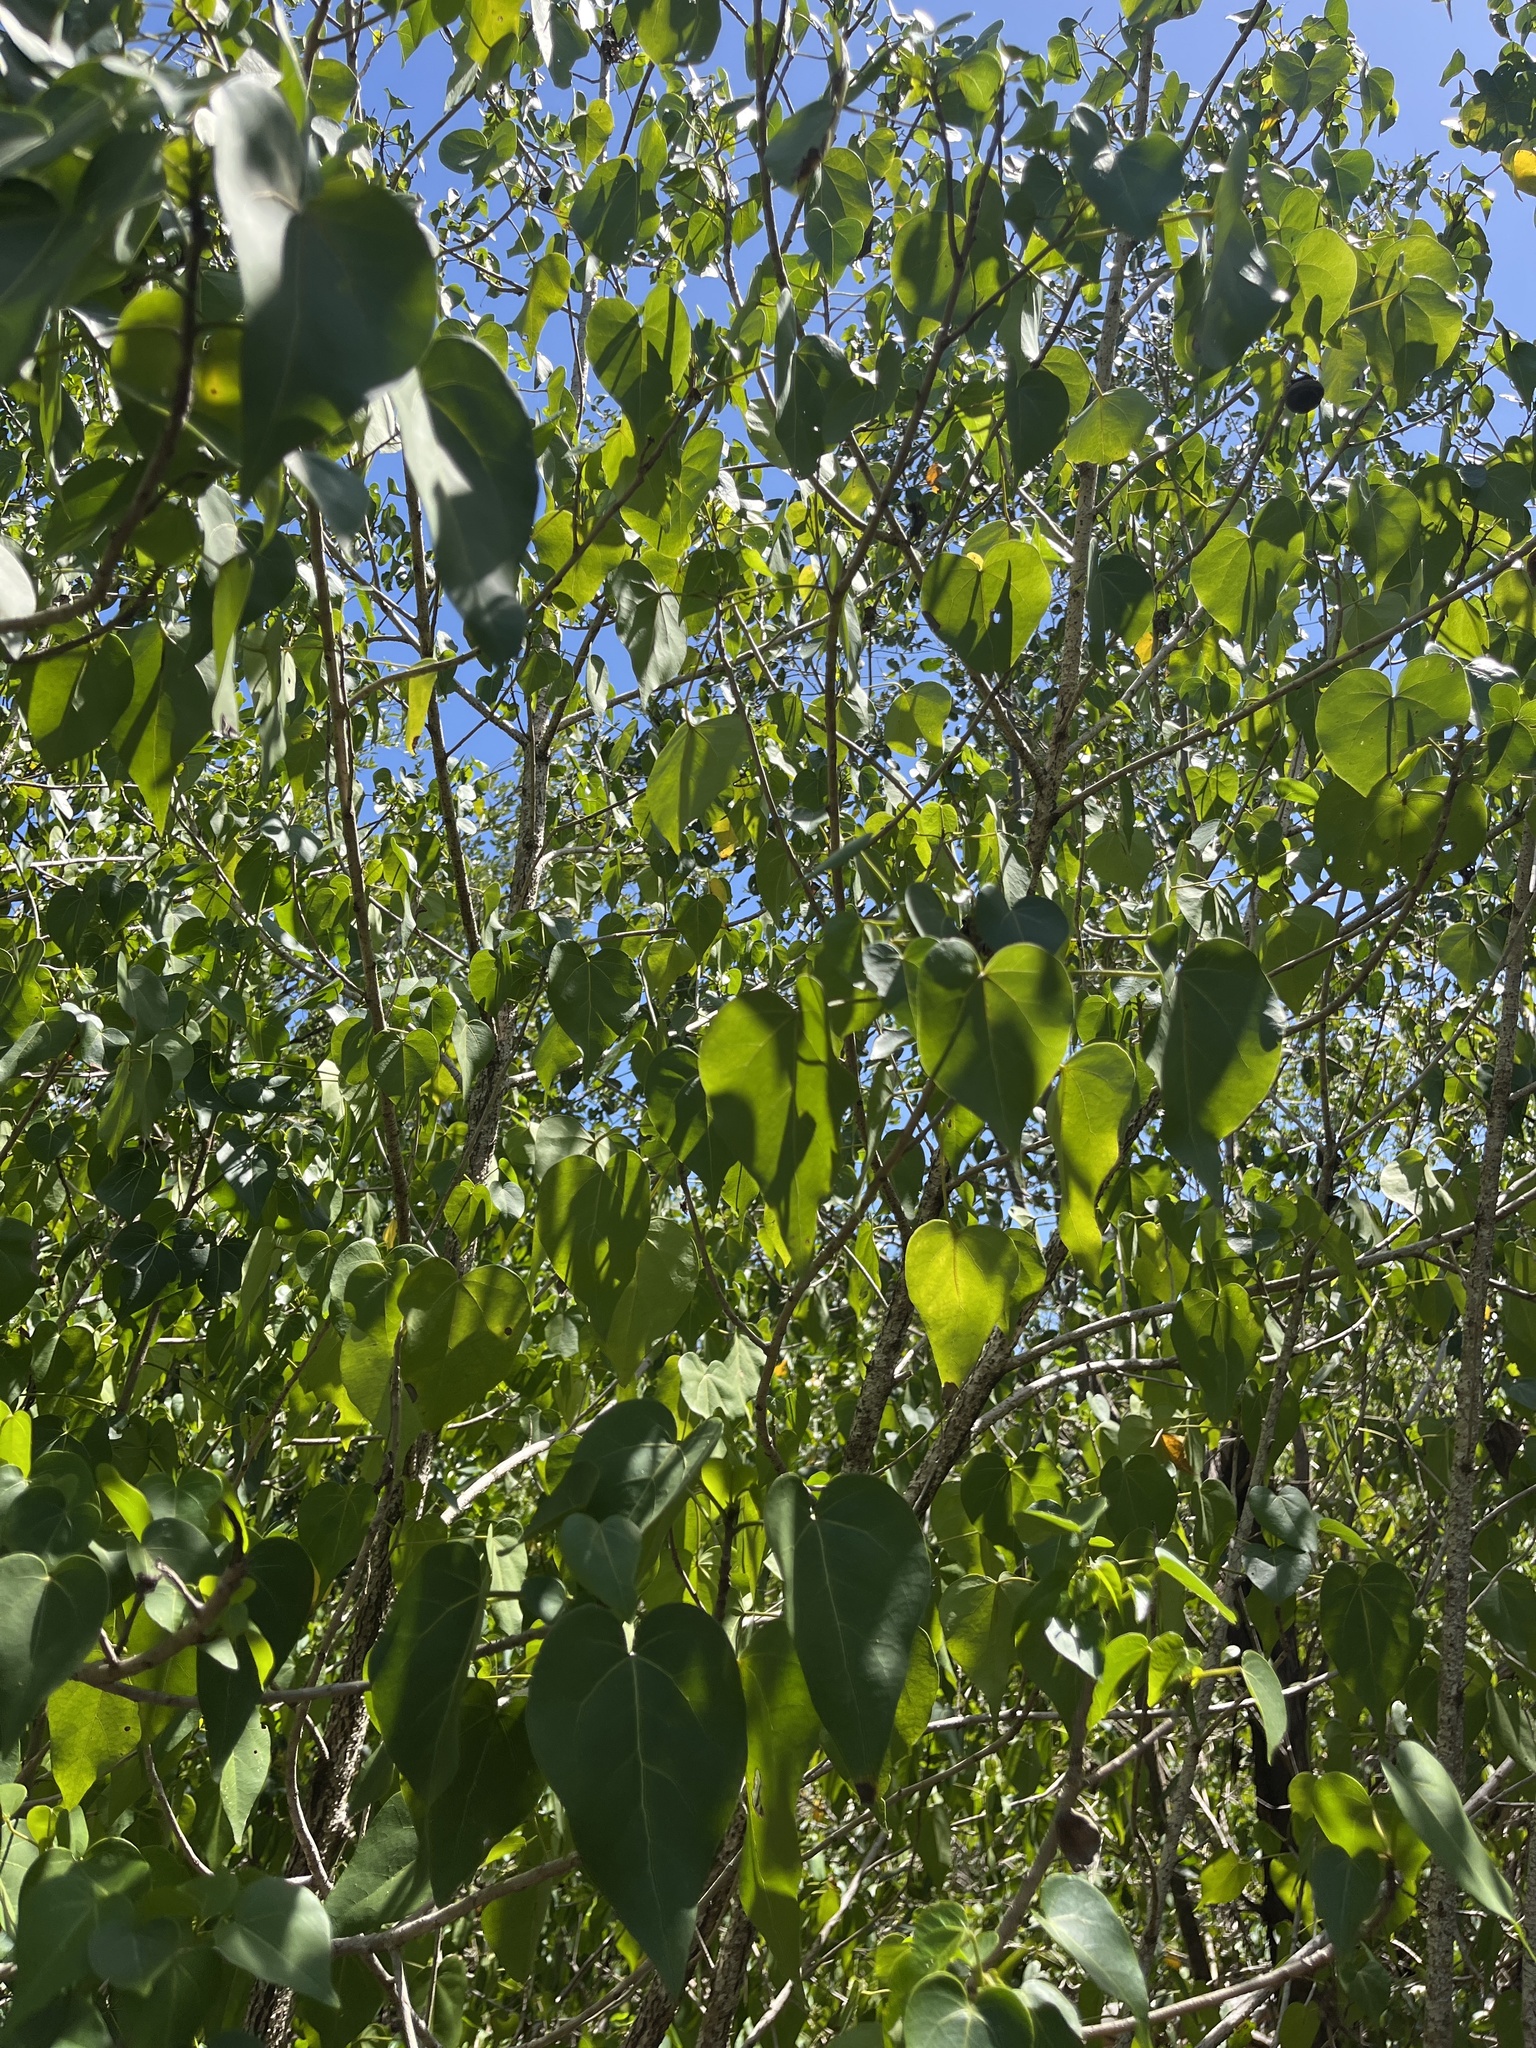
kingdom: Plantae
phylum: Tracheophyta
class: Magnoliopsida
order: Malvales
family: Malvaceae
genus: Thespesia
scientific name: Thespesia populnea
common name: Seaside mahoe
